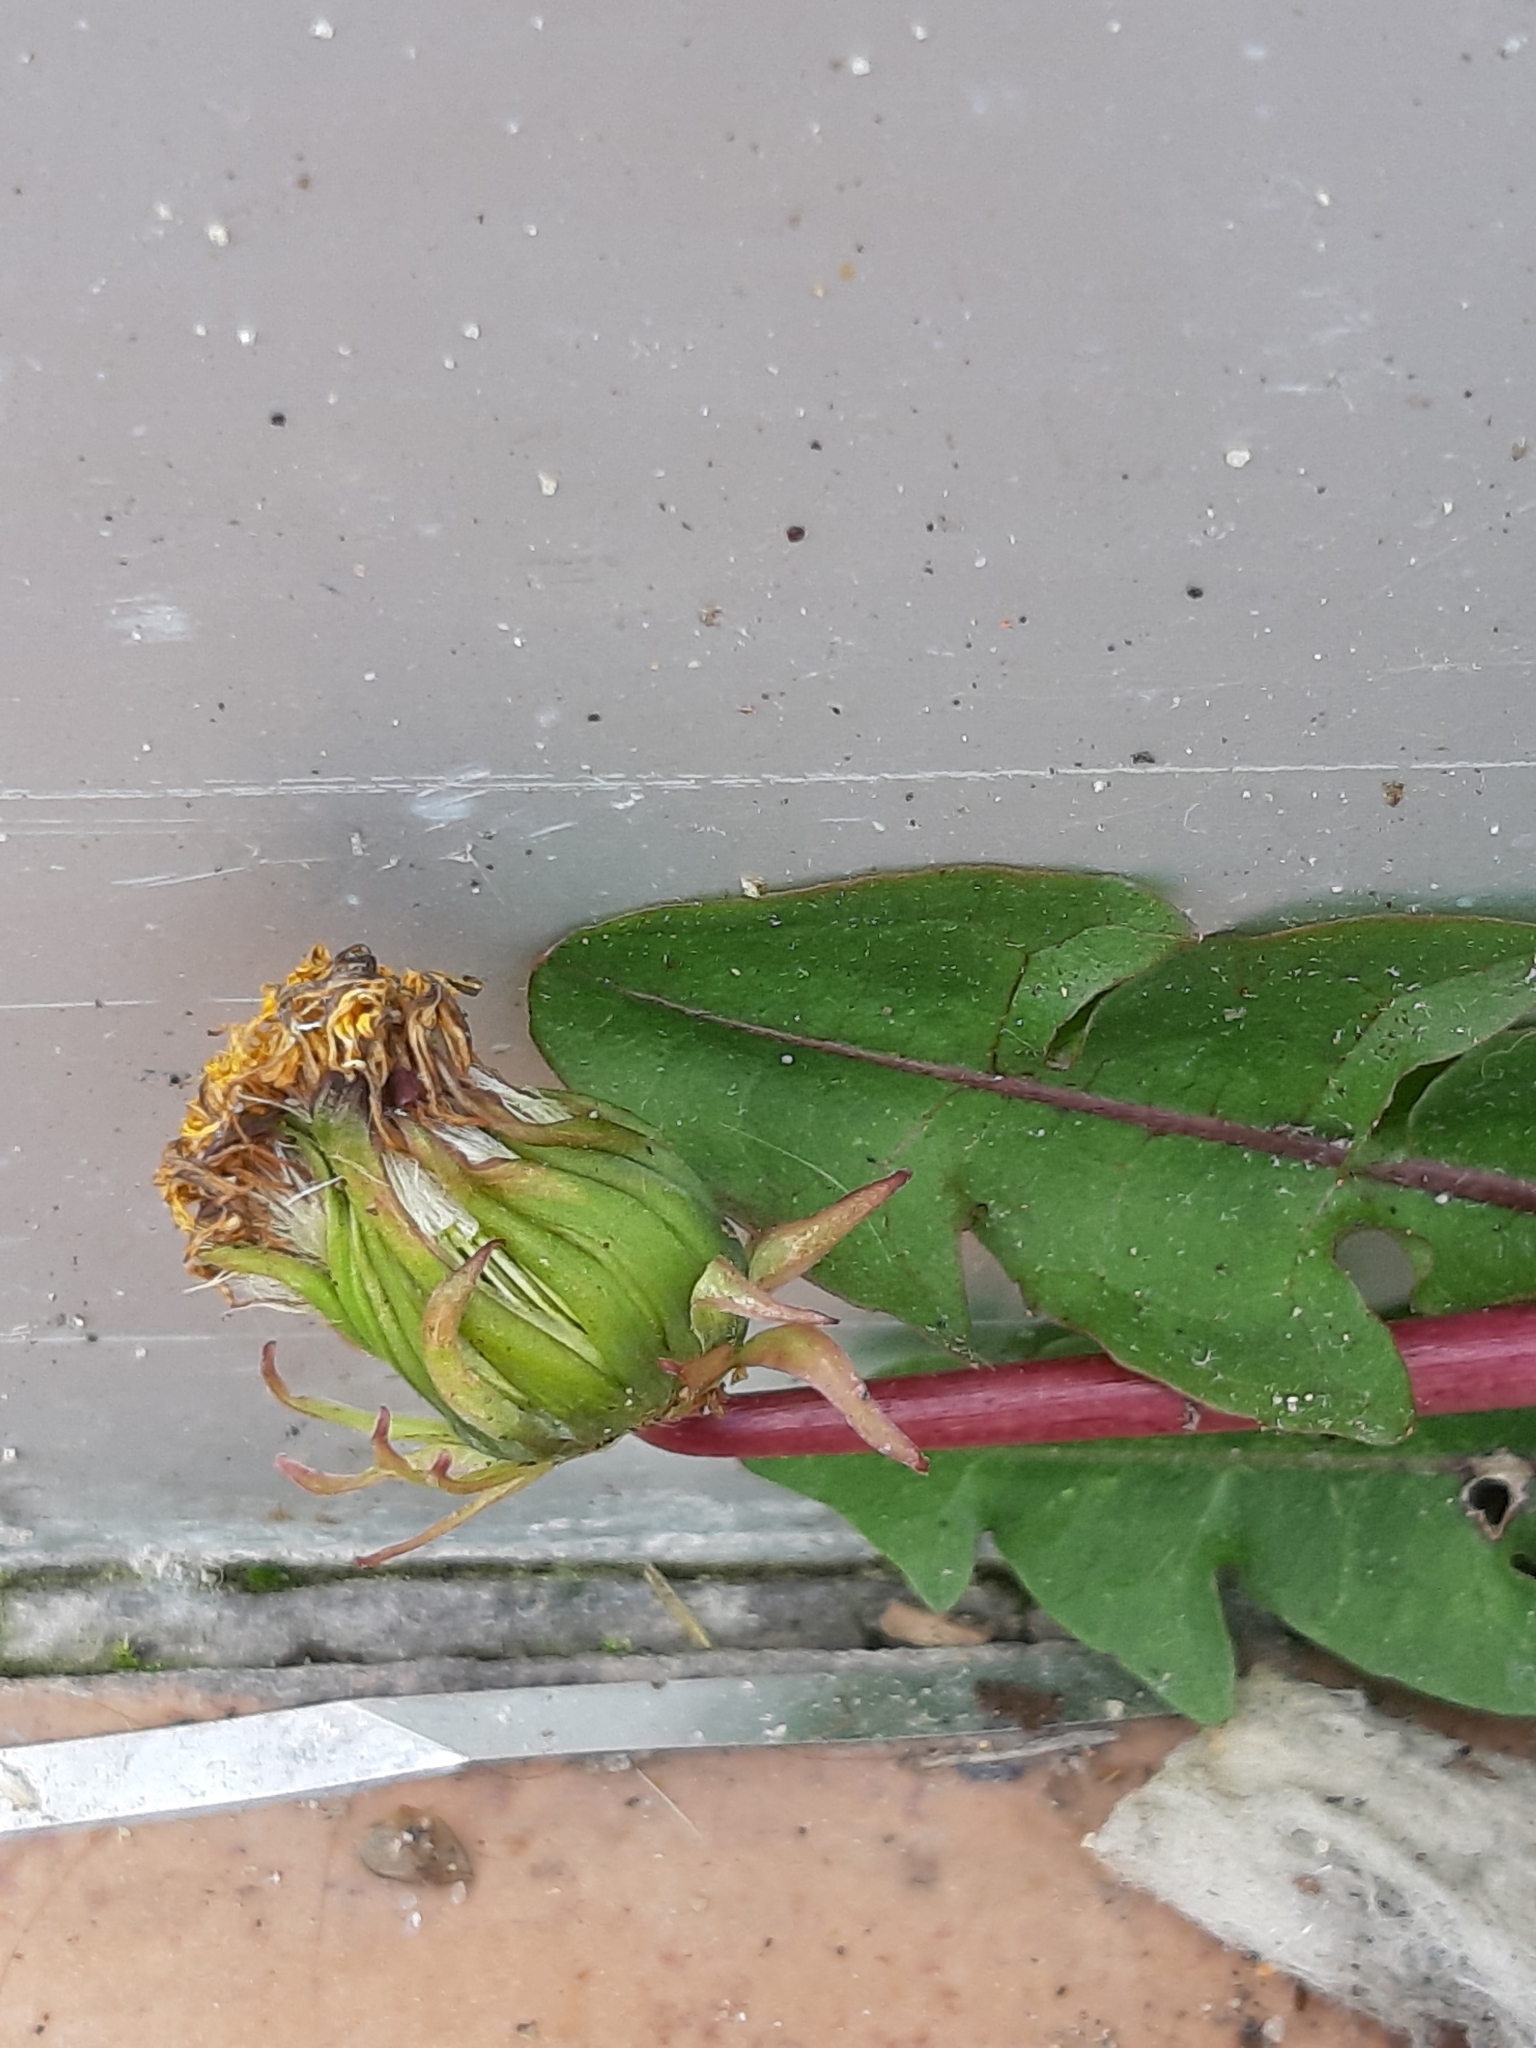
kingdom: Plantae
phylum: Tracheophyta
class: Magnoliopsida
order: Asterales
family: Asteraceae
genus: Taraxacum
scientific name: Taraxacum officinale
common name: Common dandelion
